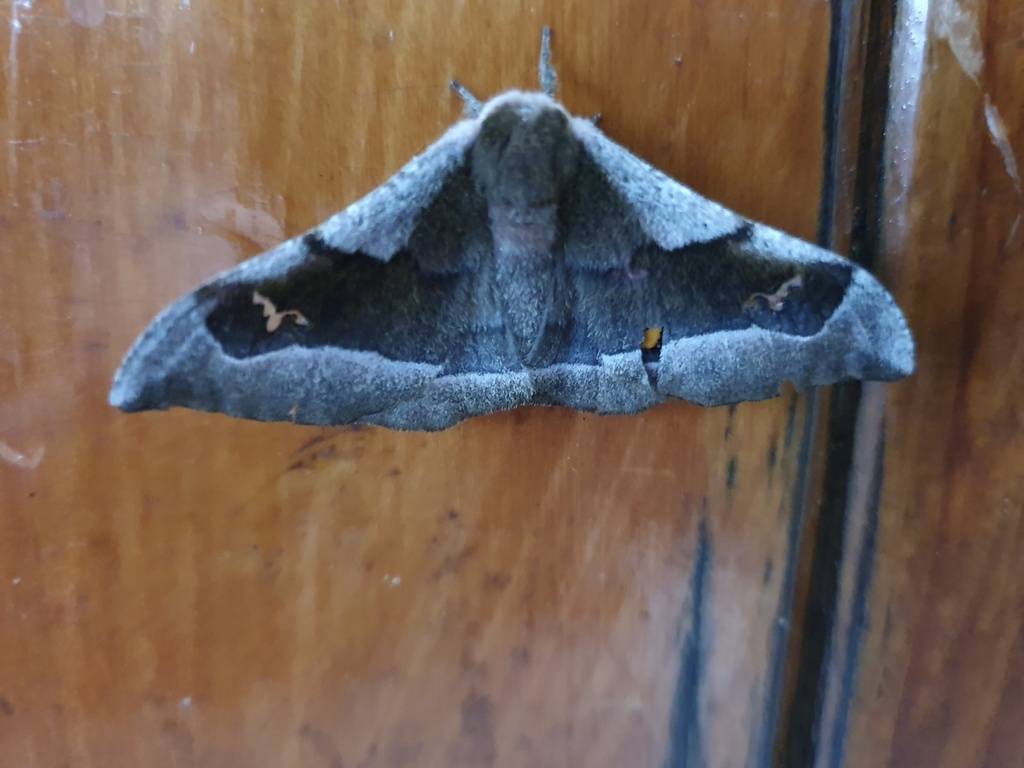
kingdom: Animalia
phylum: Arthropoda
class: Insecta
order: Lepidoptera
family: Saturniidae
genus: Ludia
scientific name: Ludia delegorguei
